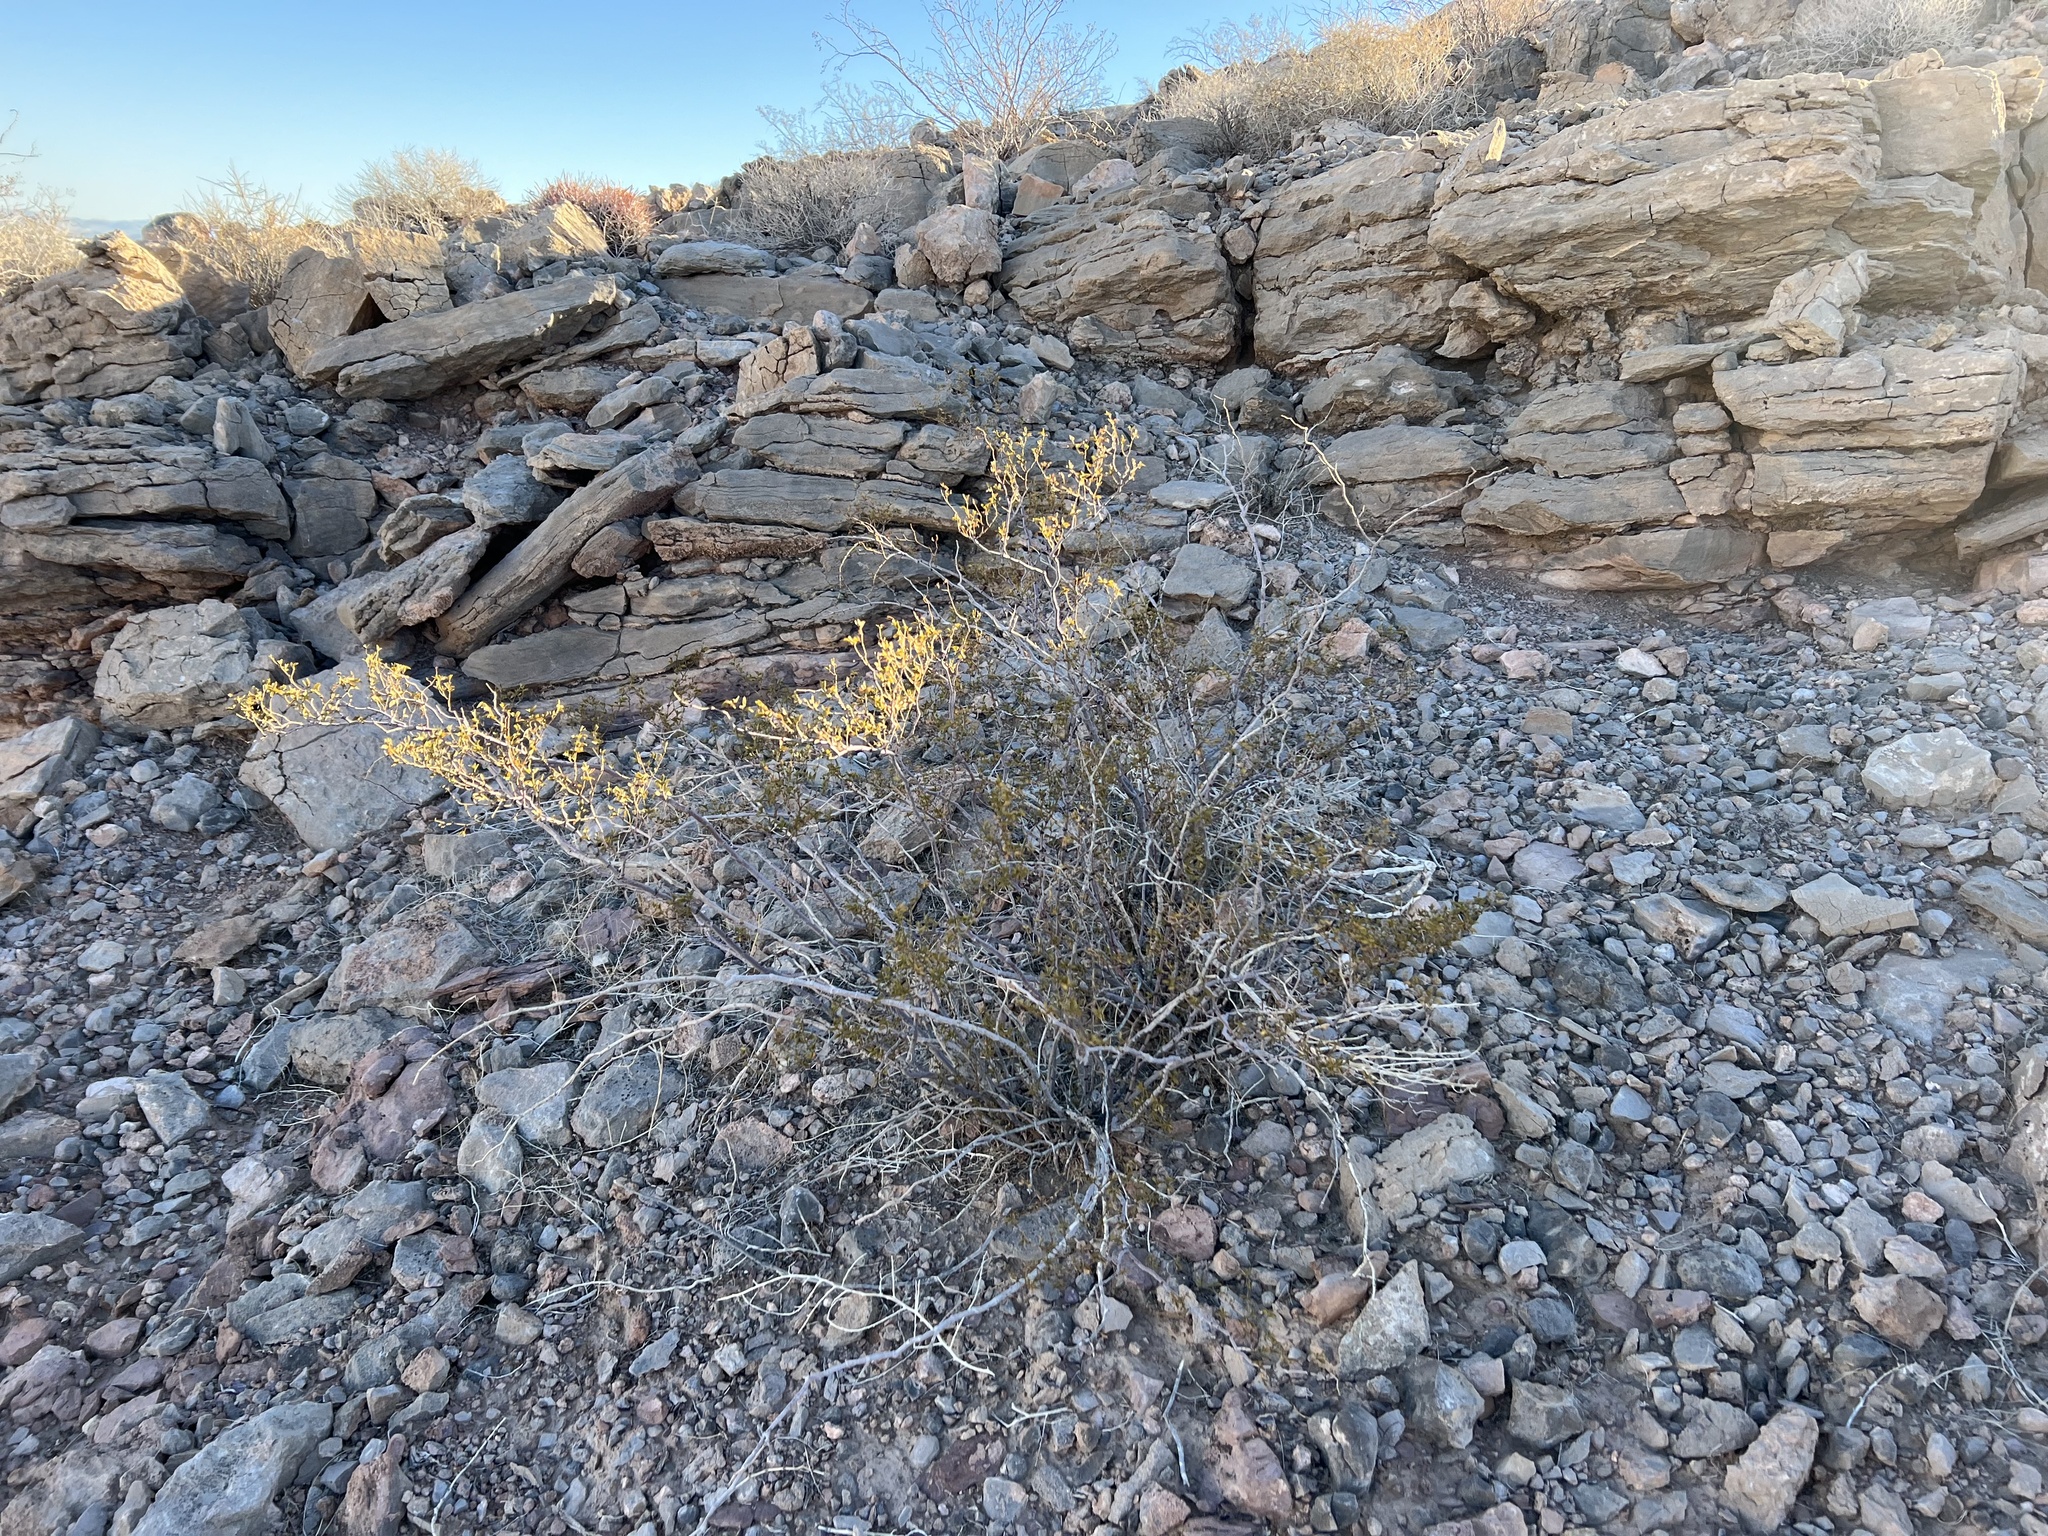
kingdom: Plantae
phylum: Tracheophyta
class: Magnoliopsida
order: Zygophyllales
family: Zygophyllaceae
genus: Larrea
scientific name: Larrea tridentata
